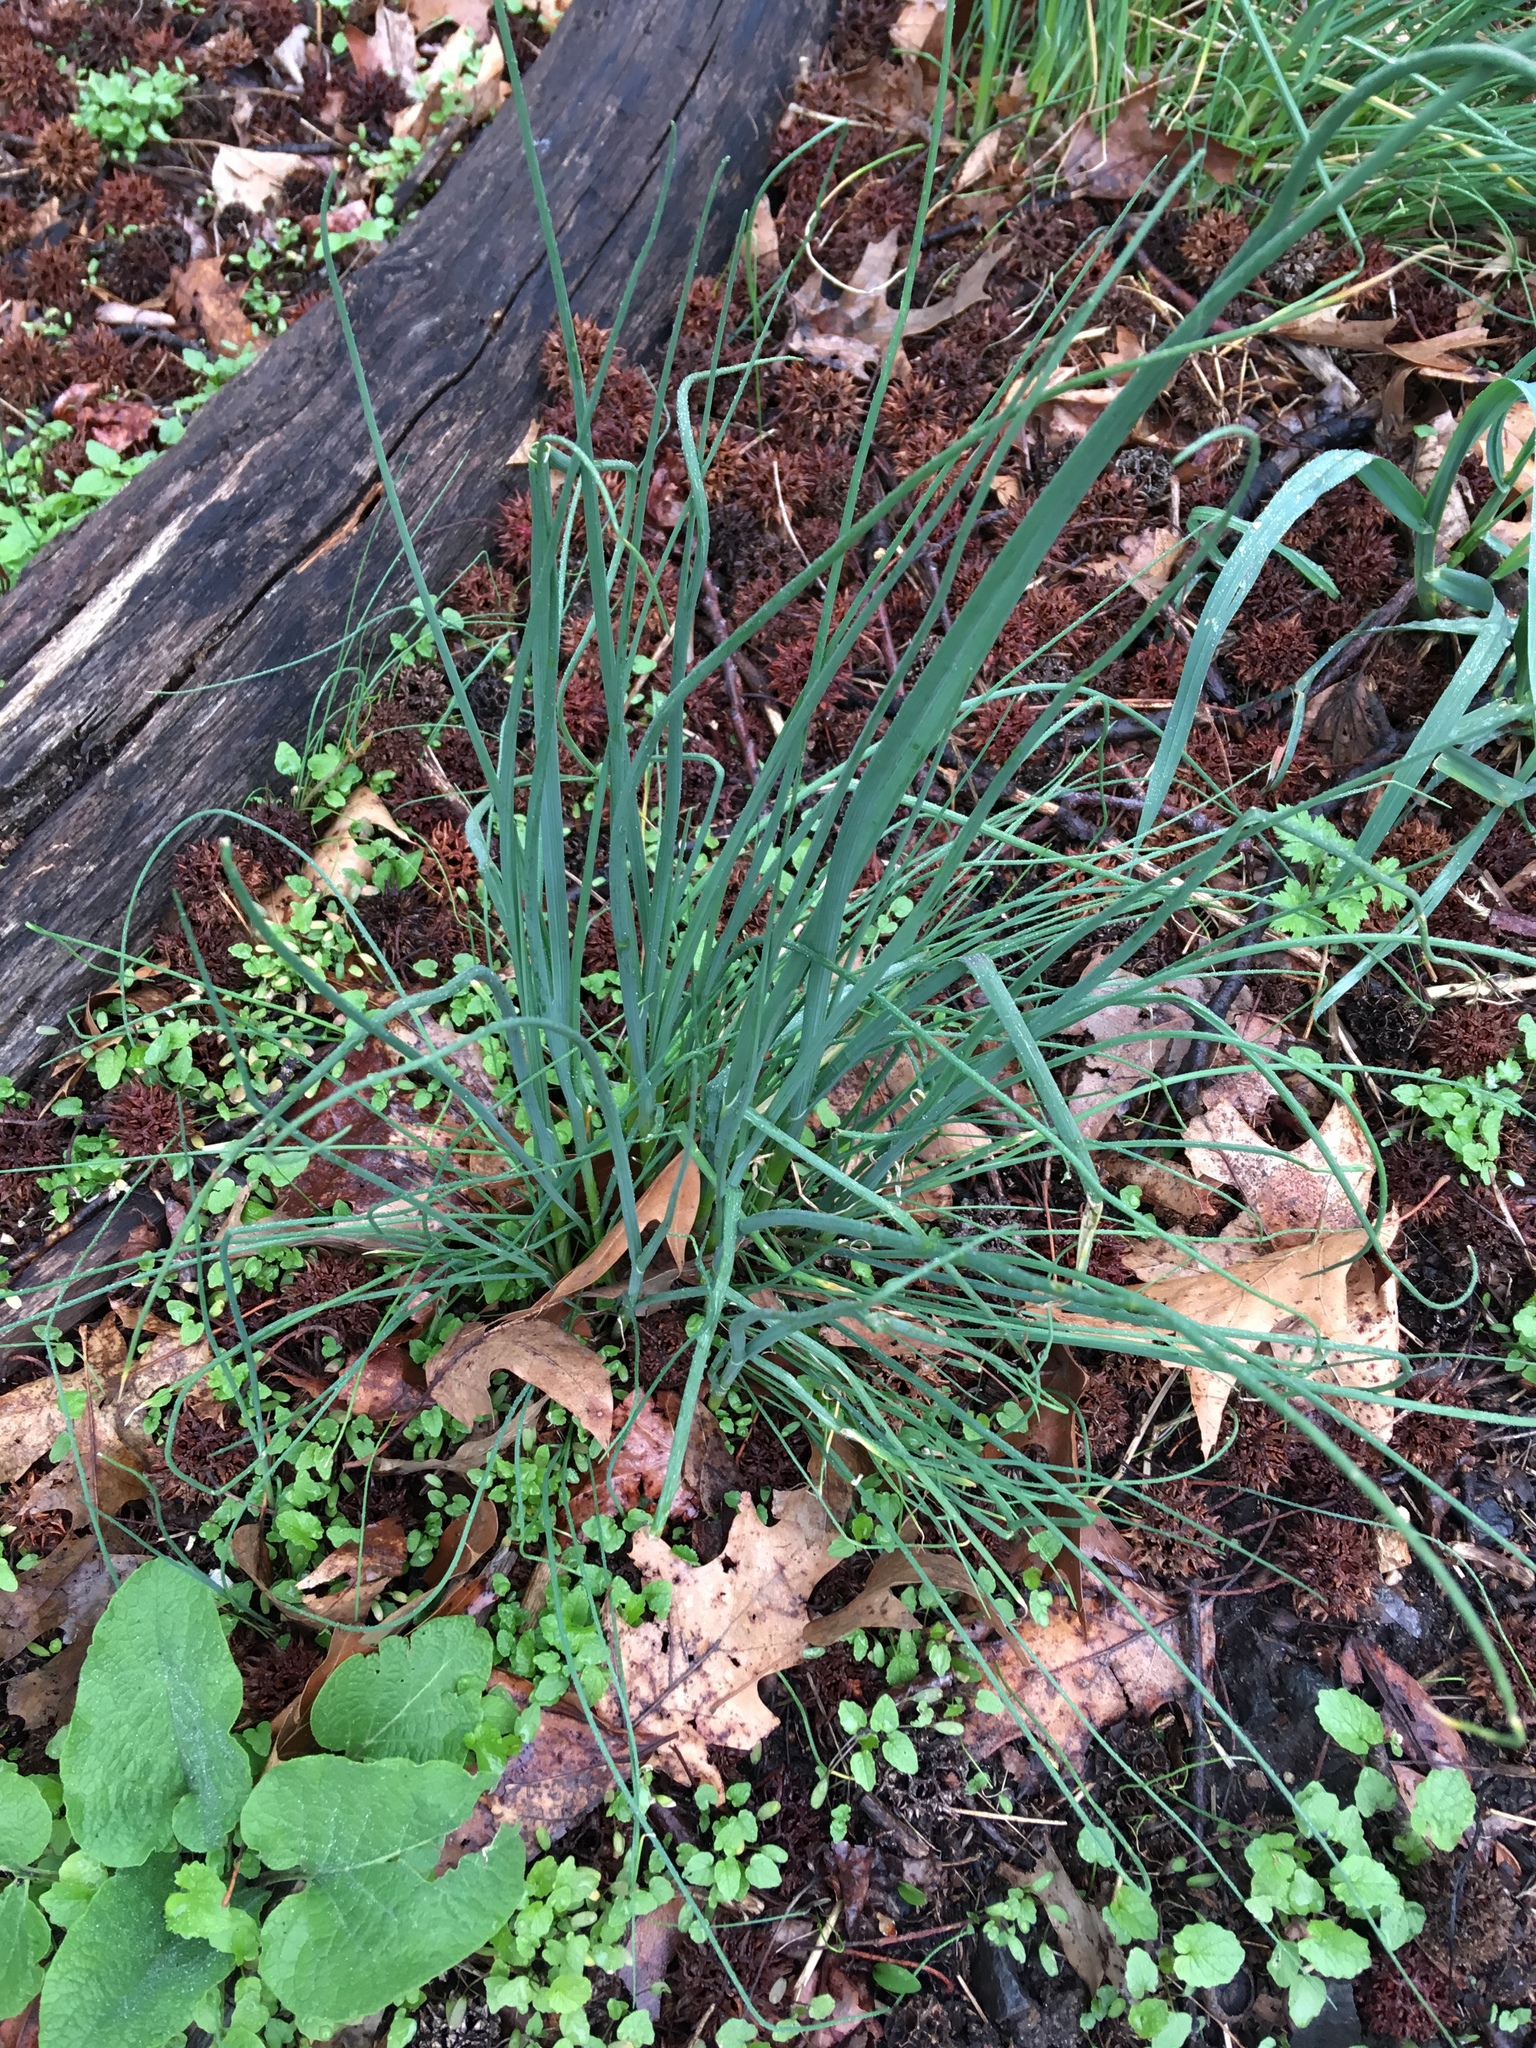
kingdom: Plantae
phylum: Tracheophyta
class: Liliopsida
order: Asparagales
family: Amaryllidaceae
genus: Allium
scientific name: Allium vineale
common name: Crow garlic
